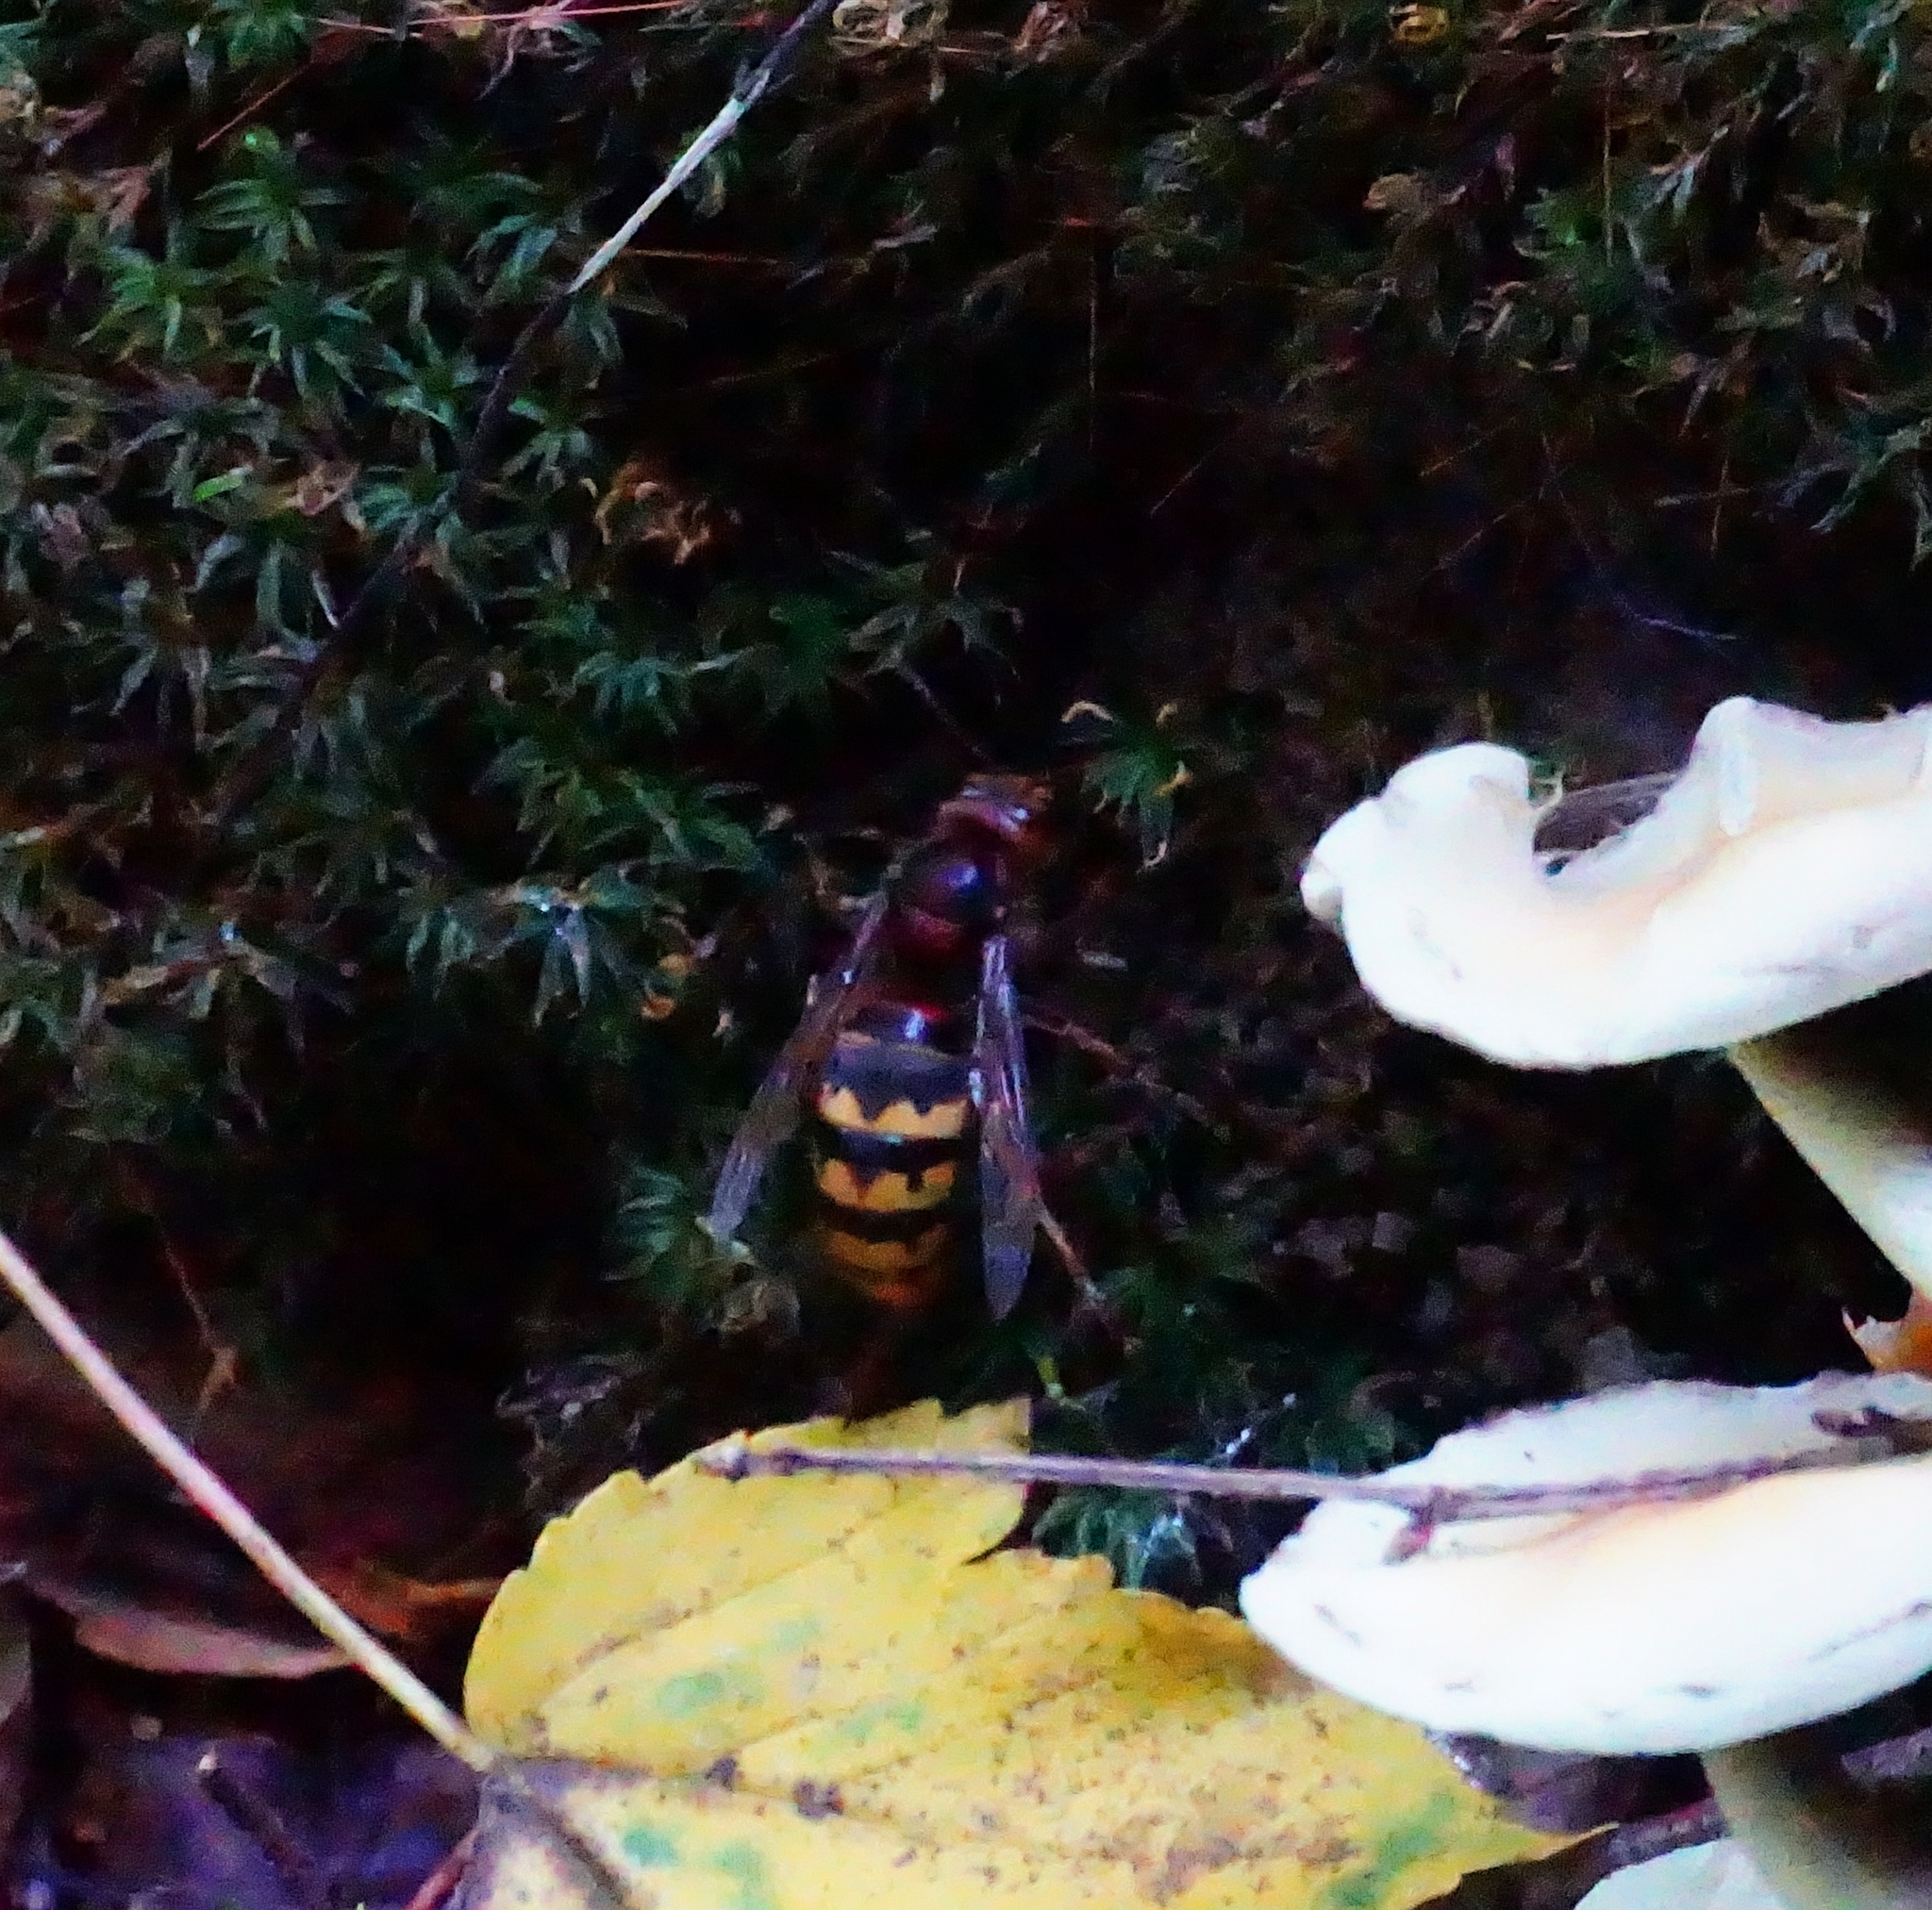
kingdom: Animalia
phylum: Arthropoda
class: Insecta
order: Hymenoptera
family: Vespidae
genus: Vespa
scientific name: Vespa crabro
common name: Hornet
